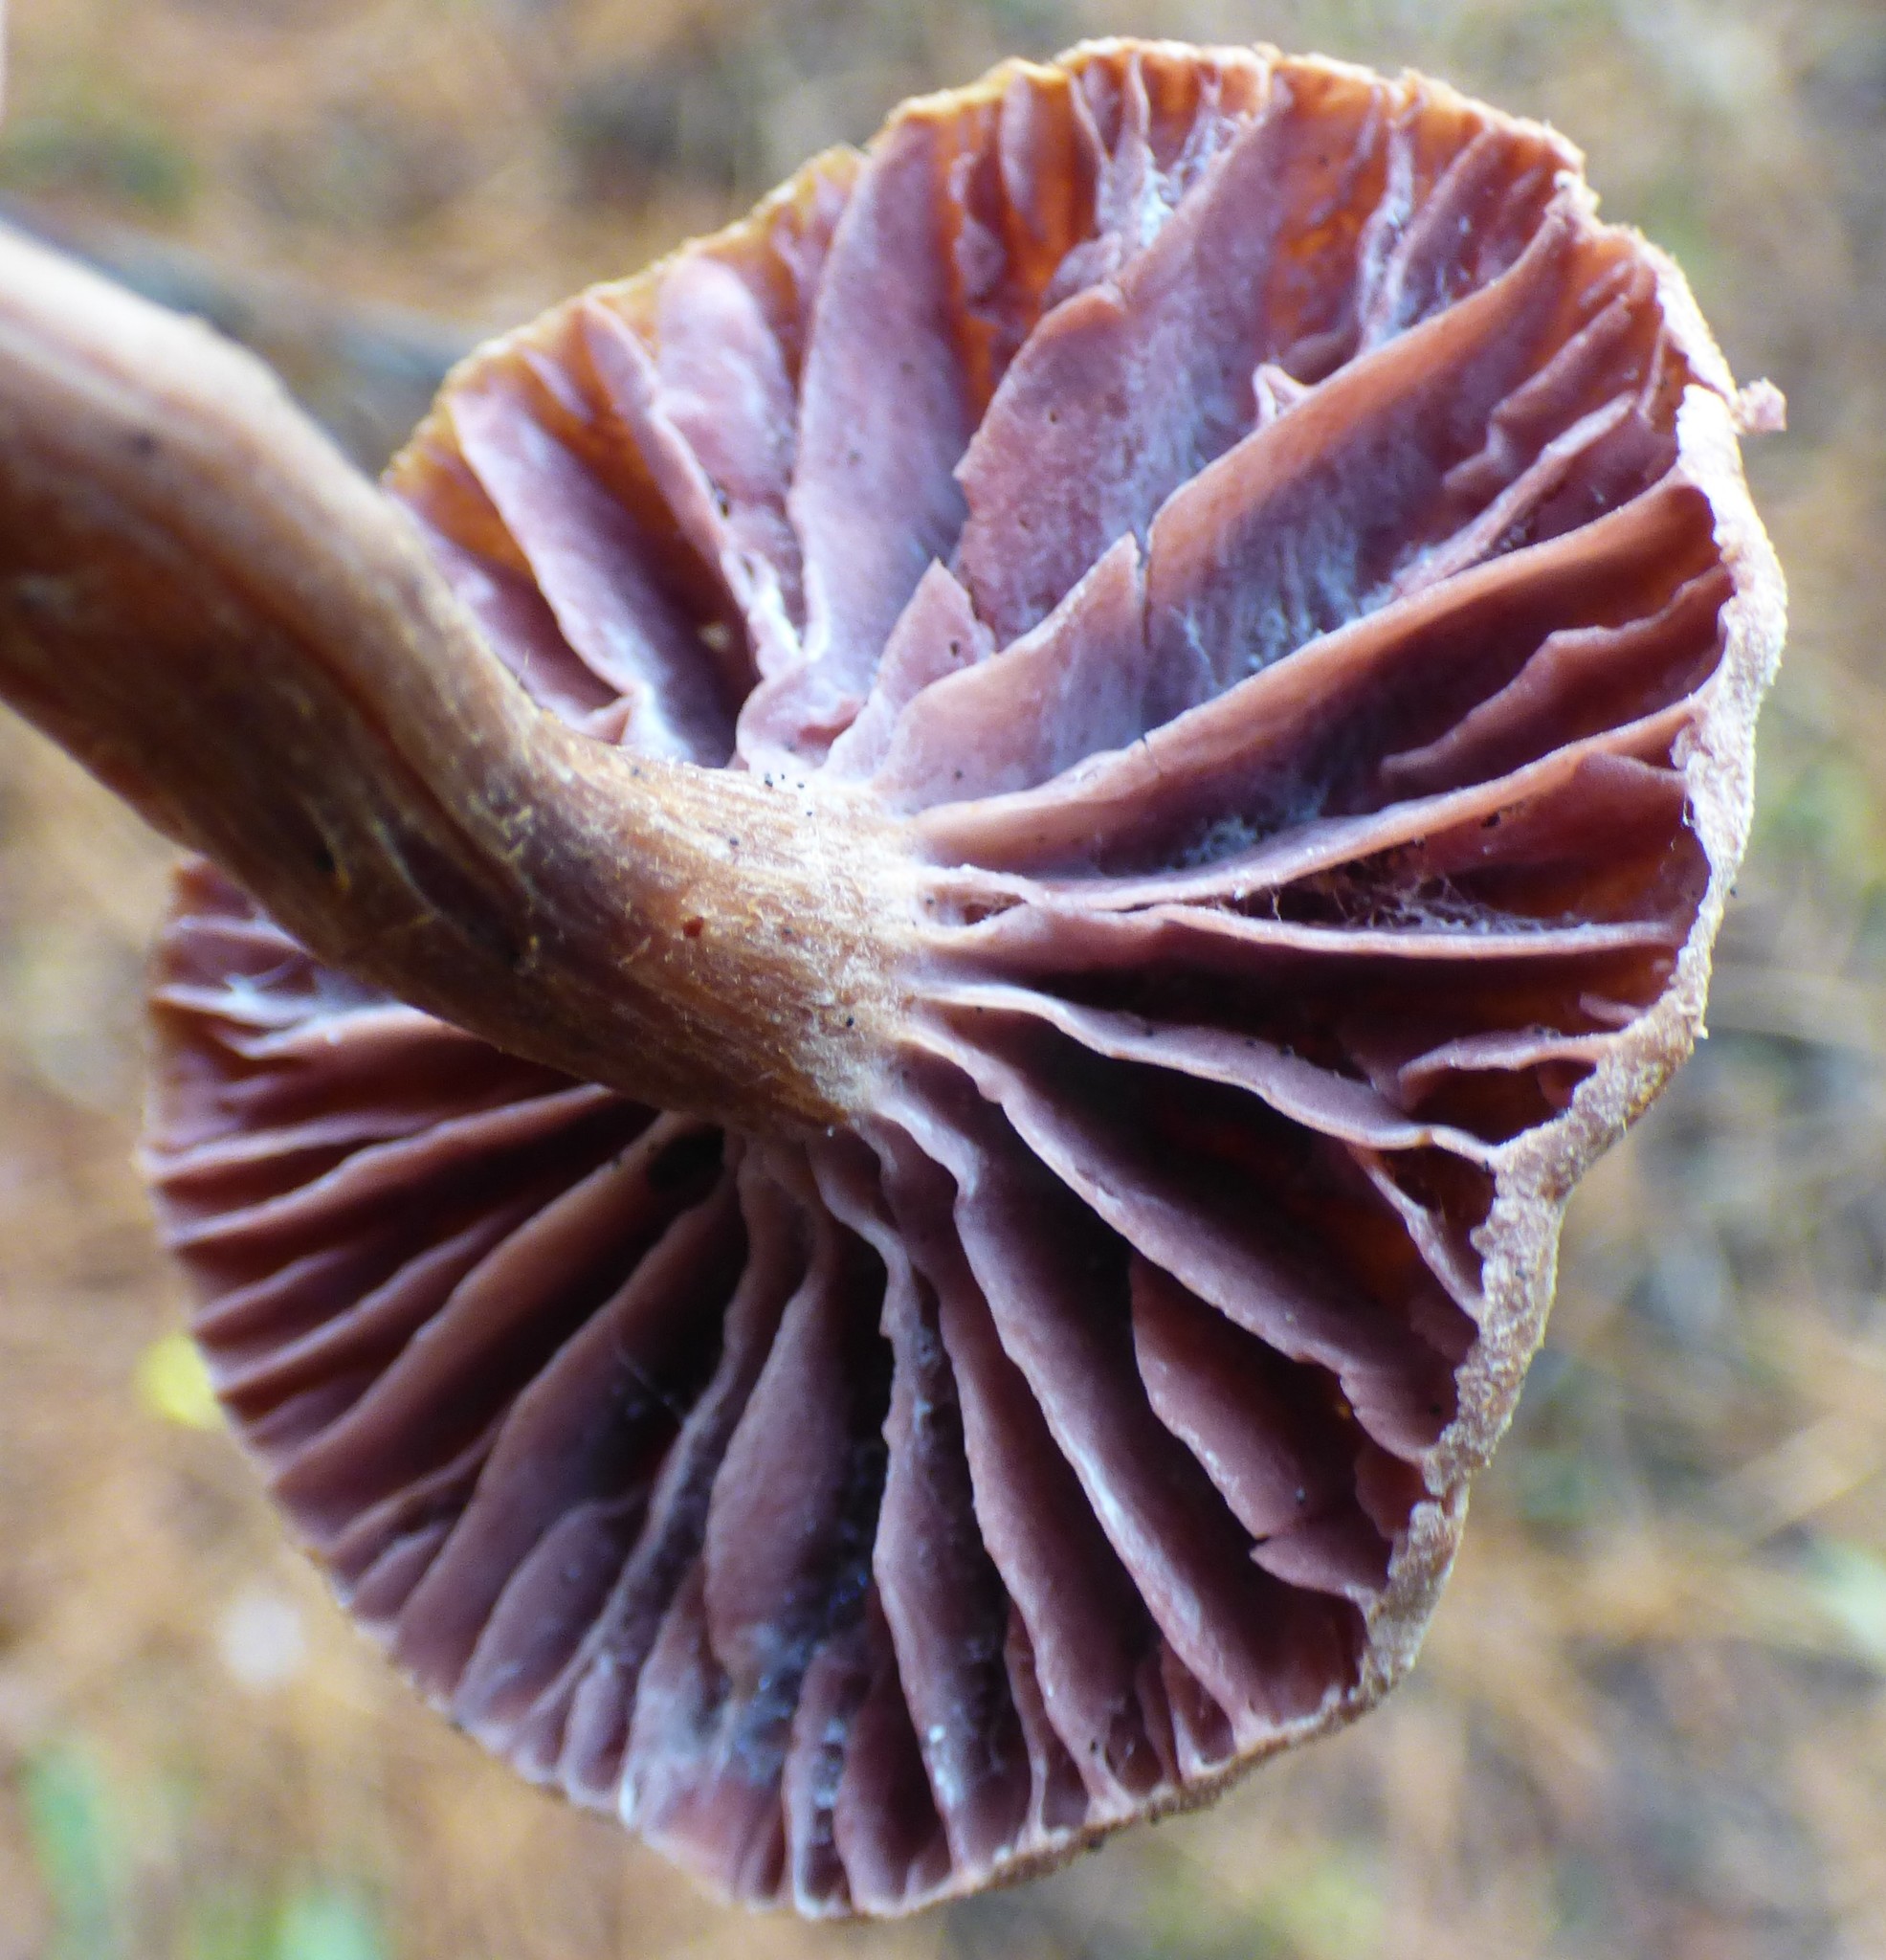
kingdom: Fungi
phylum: Basidiomycota
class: Agaricomycetes
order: Agaricales
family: Hydnangiaceae
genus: Laccaria
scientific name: Laccaria ochropurpurea
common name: Purple laccaria
